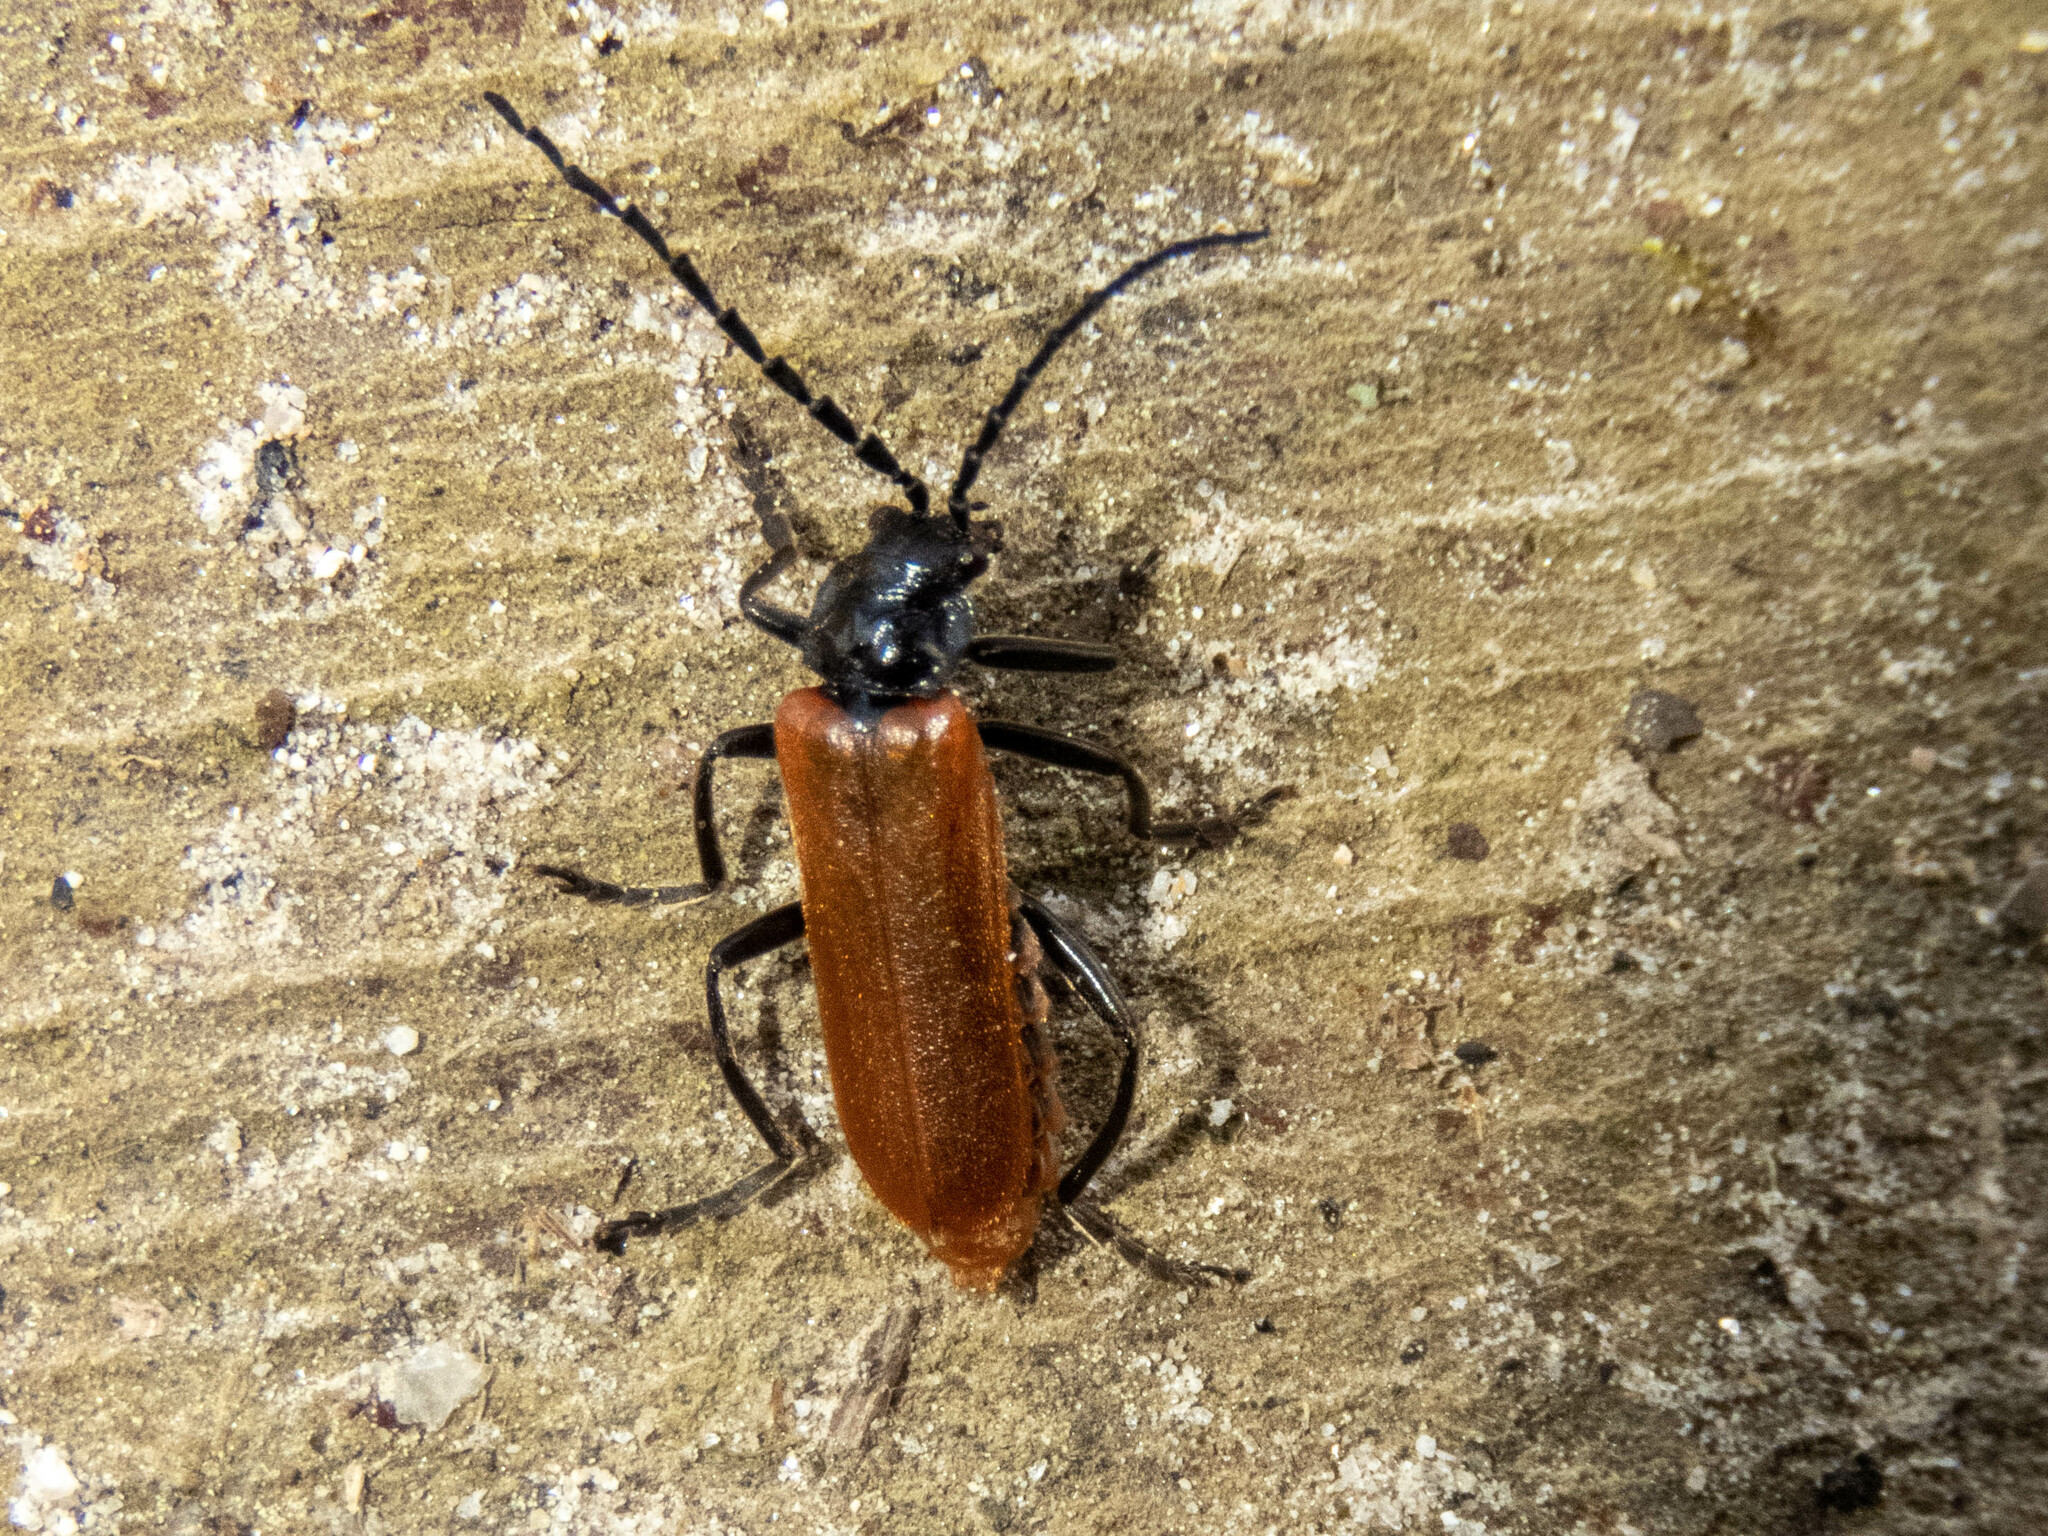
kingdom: Animalia
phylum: Arthropoda
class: Insecta
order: Coleoptera
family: Cantharidae
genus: Cantharis
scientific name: Cantharis palliata
